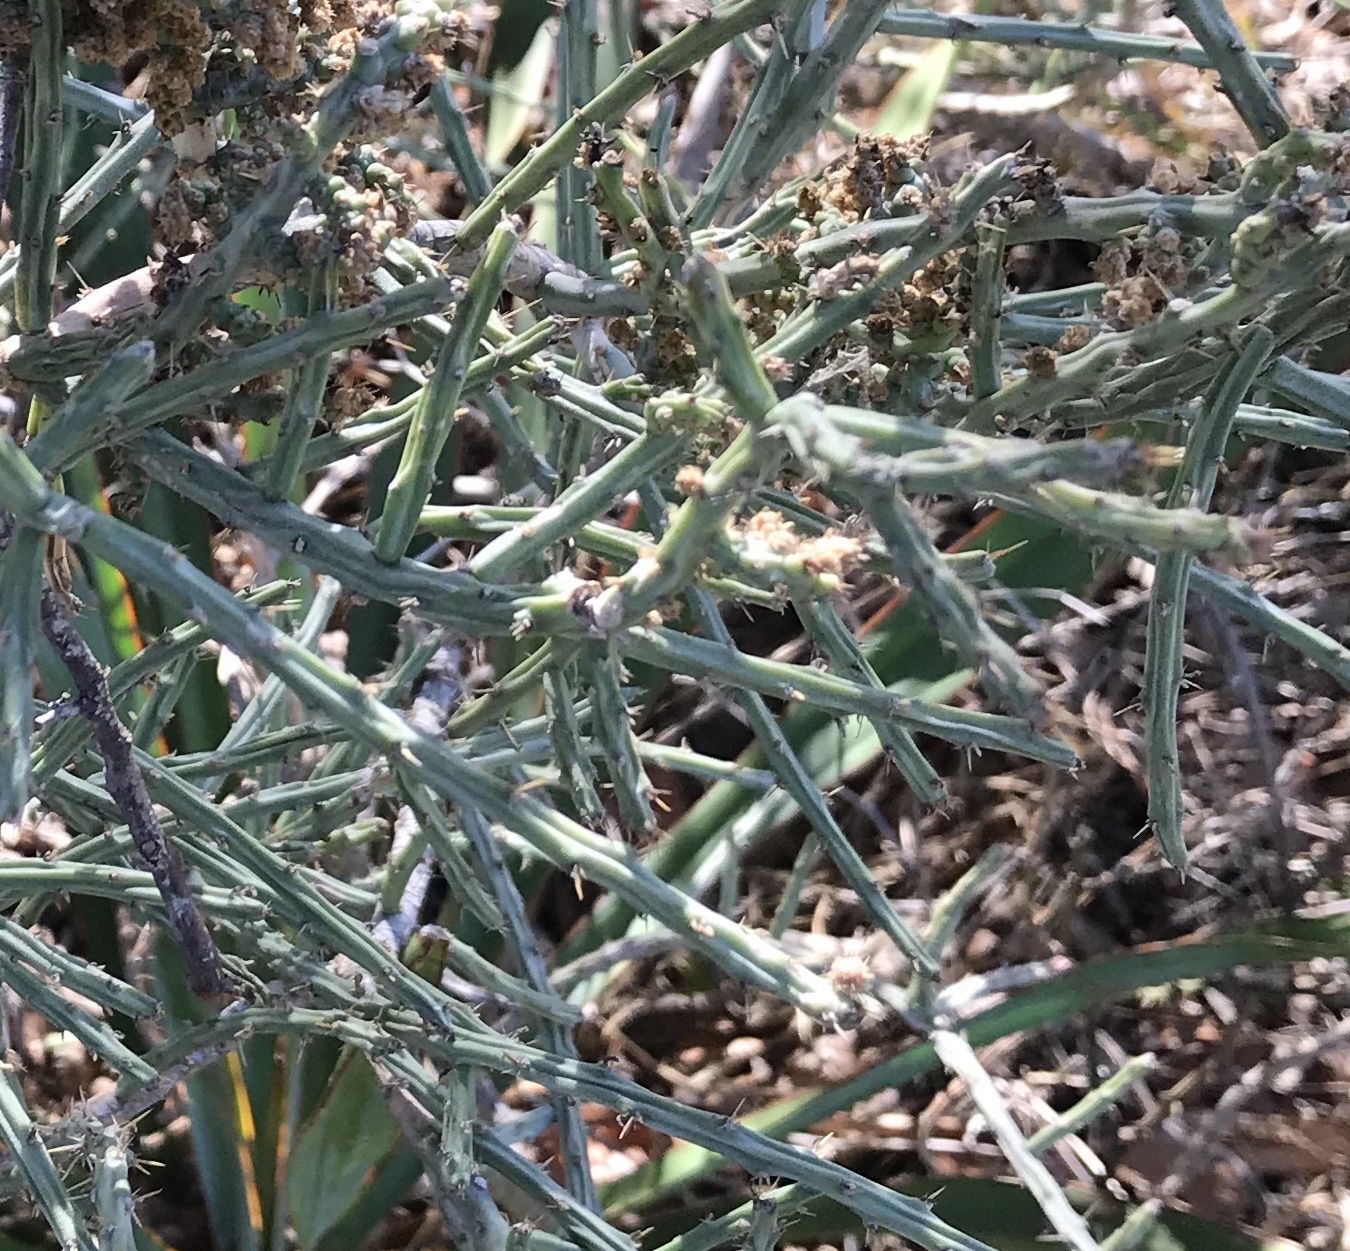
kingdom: Plantae
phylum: Tracheophyta
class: Magnoliopsida
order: Caryophyllales
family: Cactaceae
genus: Cylindropuntia
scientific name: Cylindropuntia leptocaulis
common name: Christmas cactus
